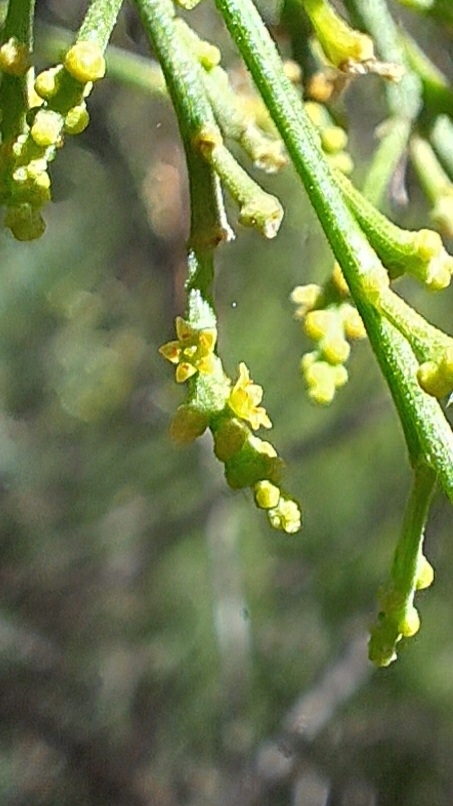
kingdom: Plantae
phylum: Tracheophyta
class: Magnoliopsida
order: Santalales
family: Santalaceae
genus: Exocarpos
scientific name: Exocarpos cupressiformis
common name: Cherry ballart
